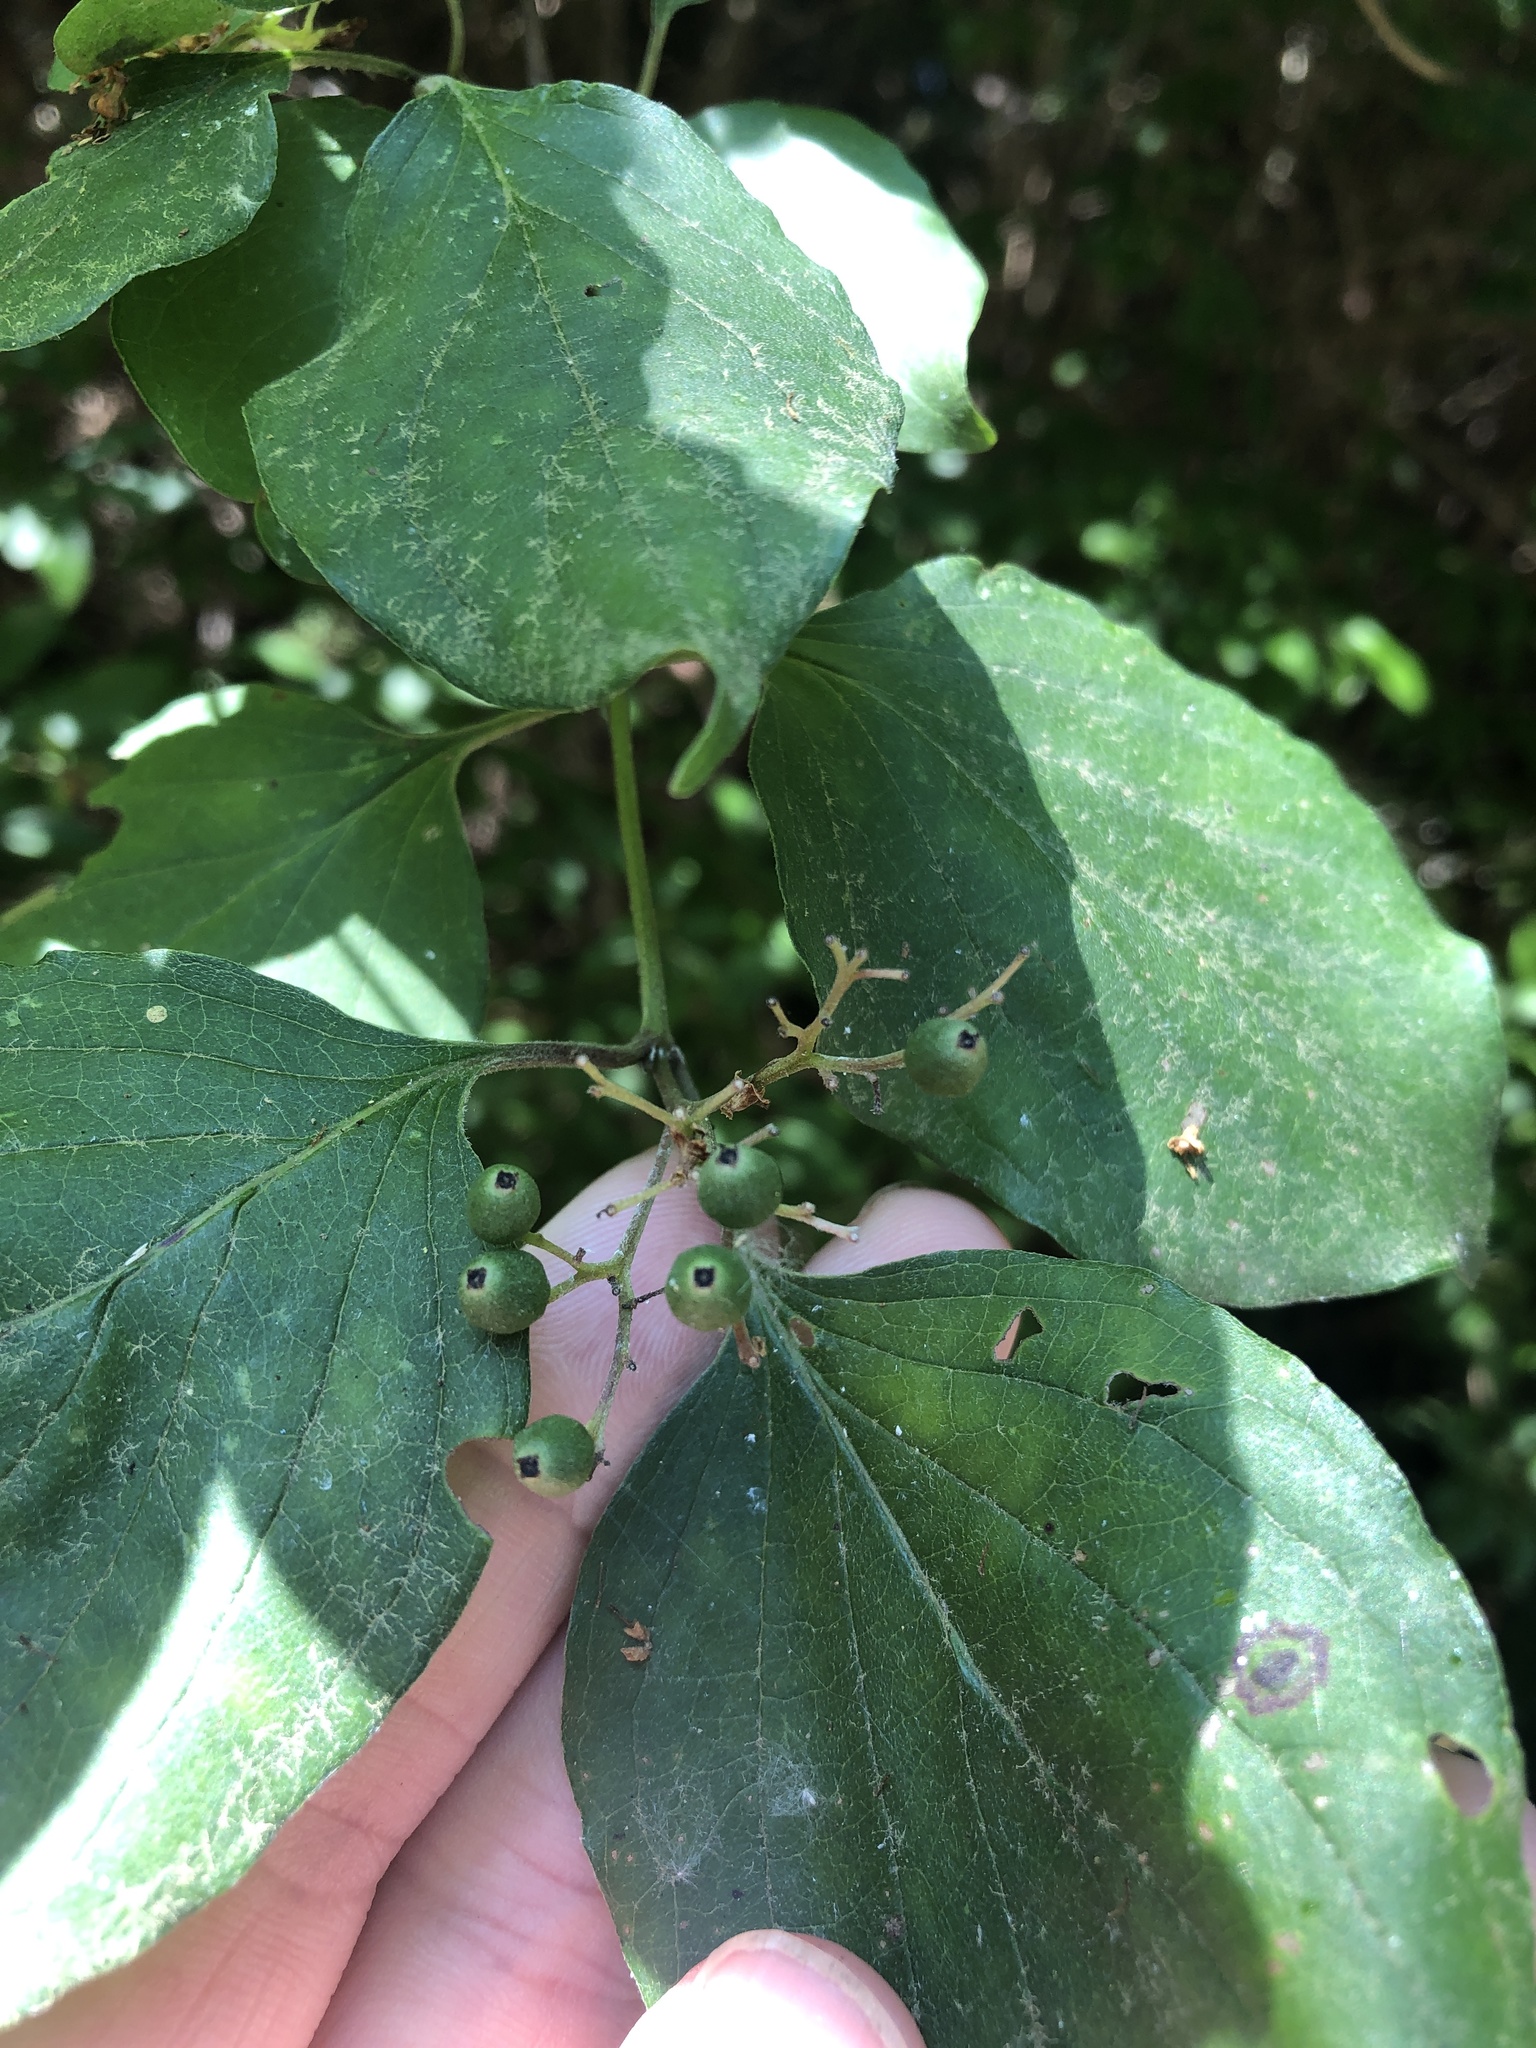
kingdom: Plantae
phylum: Tracheophyta
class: Magnoliopsida
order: Cornales
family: Cornaceae
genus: Cornus
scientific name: Cornus drummondii
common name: Rough-leaf dogwood
